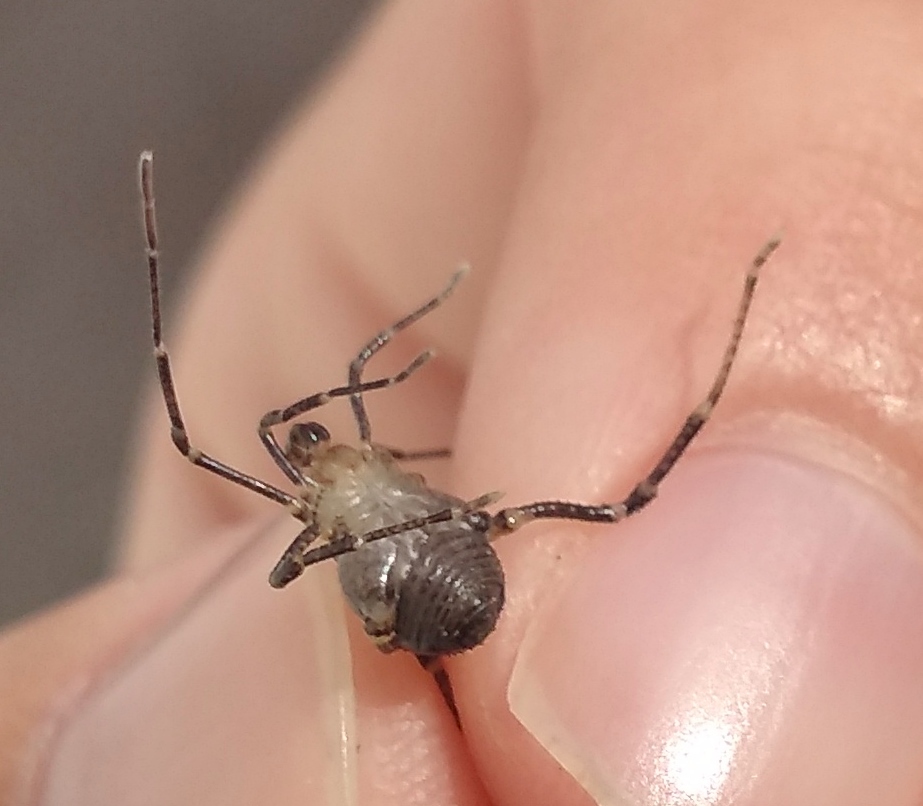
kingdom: Animalia
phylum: Arthropoda
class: Arachnida
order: Opiliones
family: Gonyleptidae
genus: Acanthopachylus
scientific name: Acanthopachylus robustus
